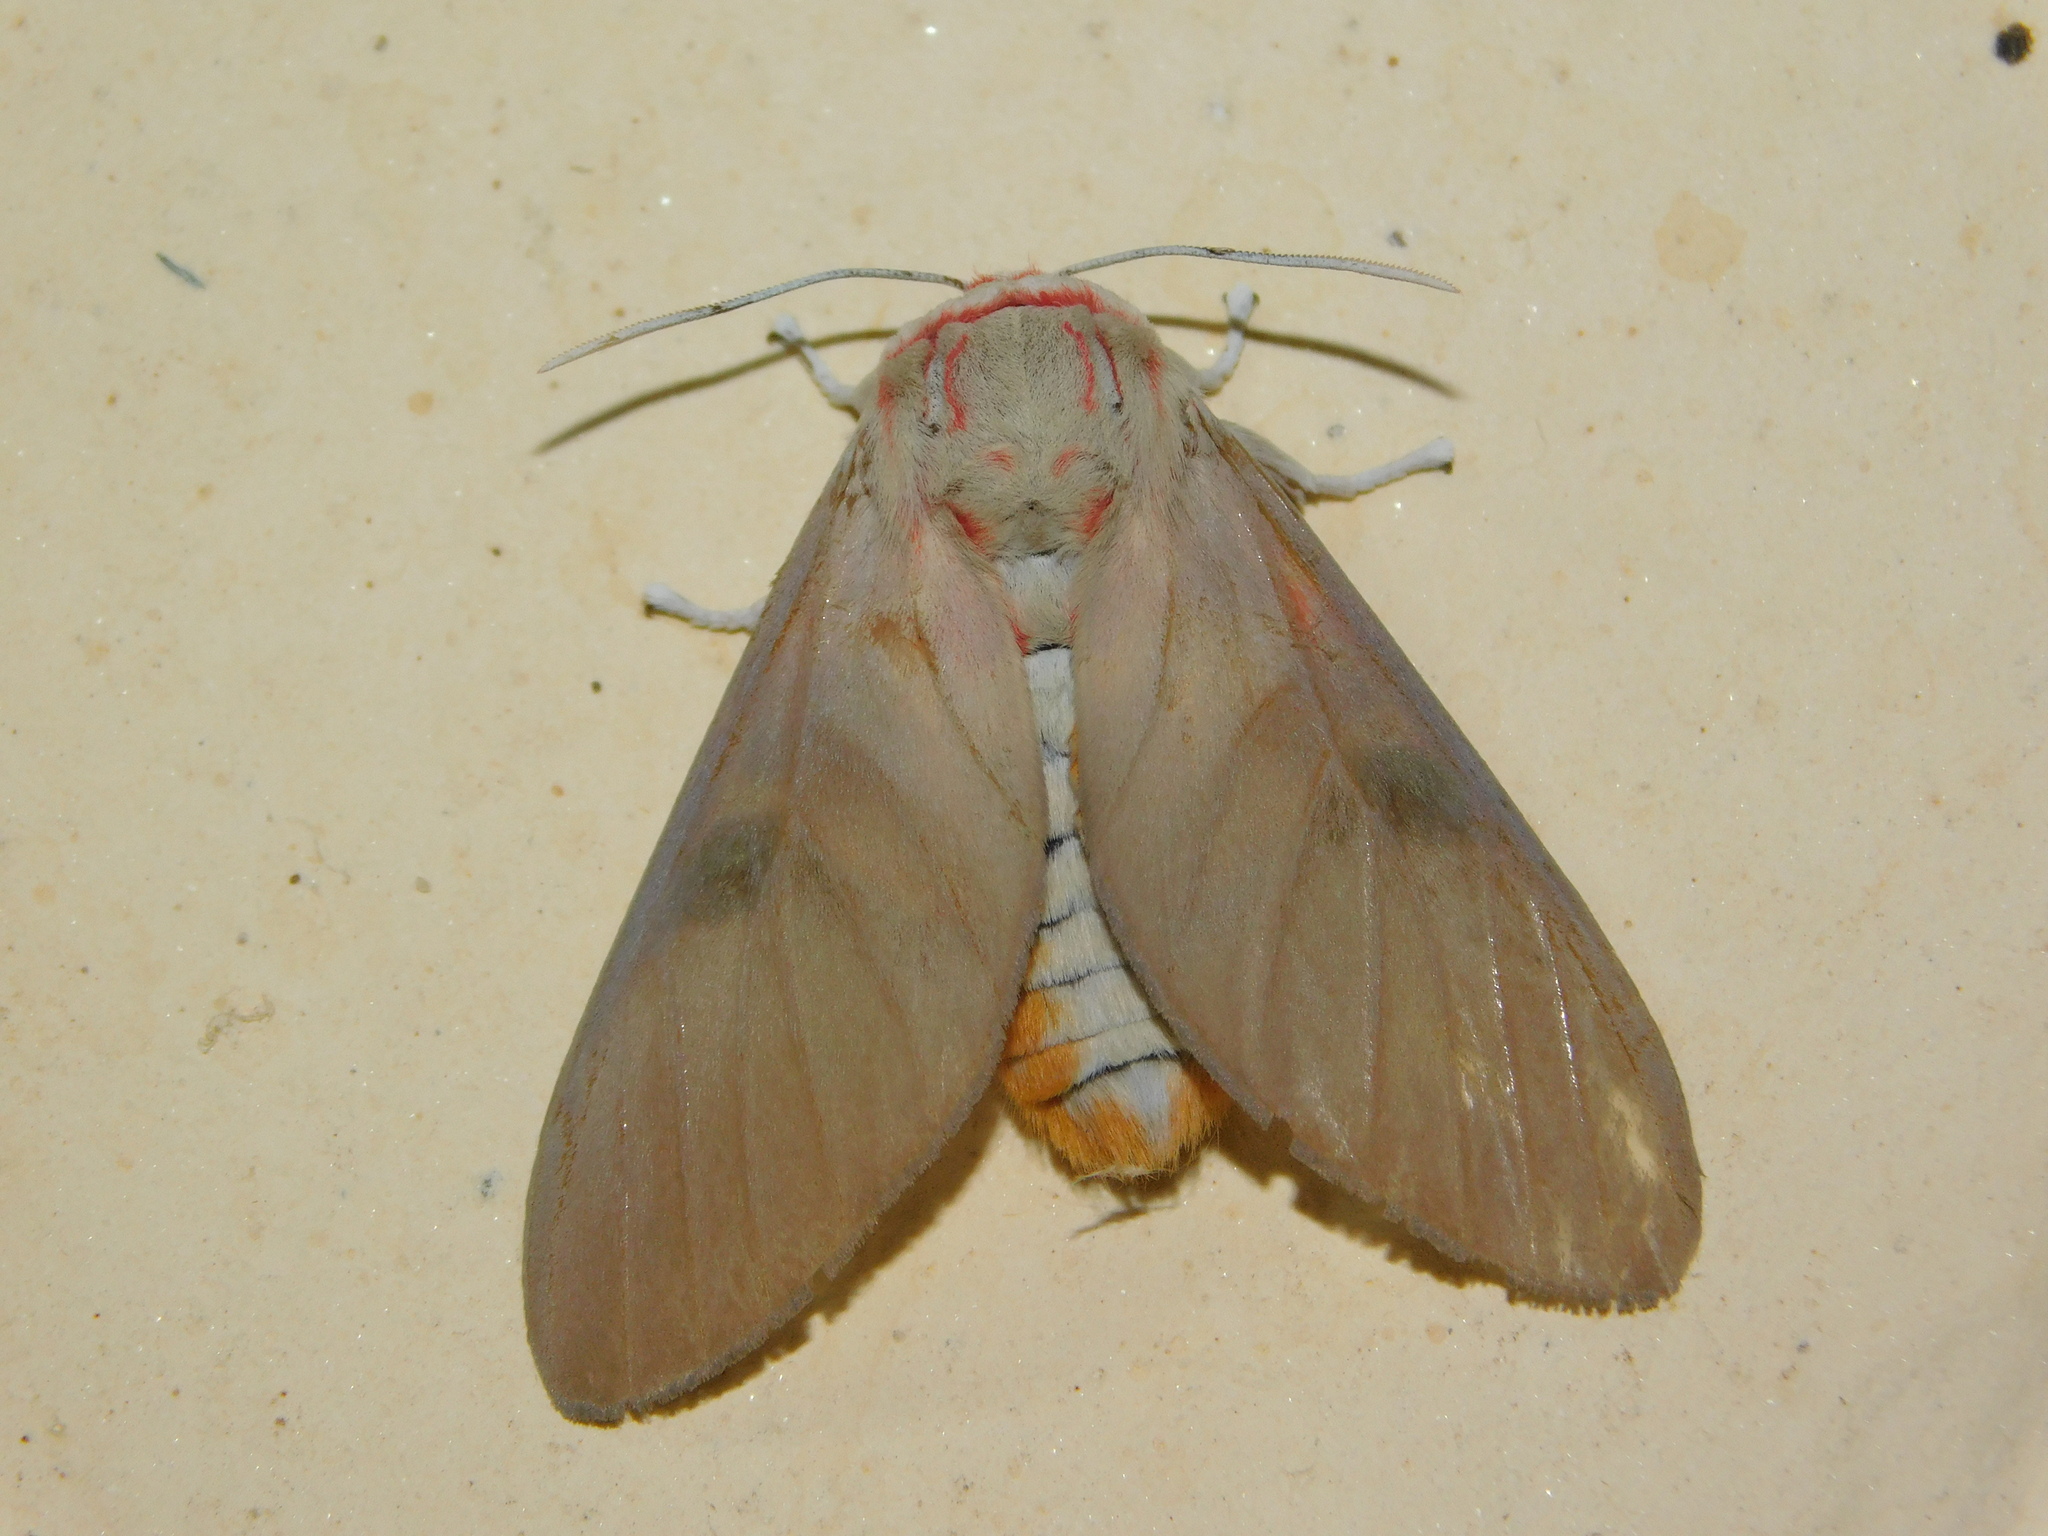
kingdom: Animalia
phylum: Arthropoda
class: Insecta
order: Lepidoptera
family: Erebidae
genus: Balacra
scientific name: Balacra herona
